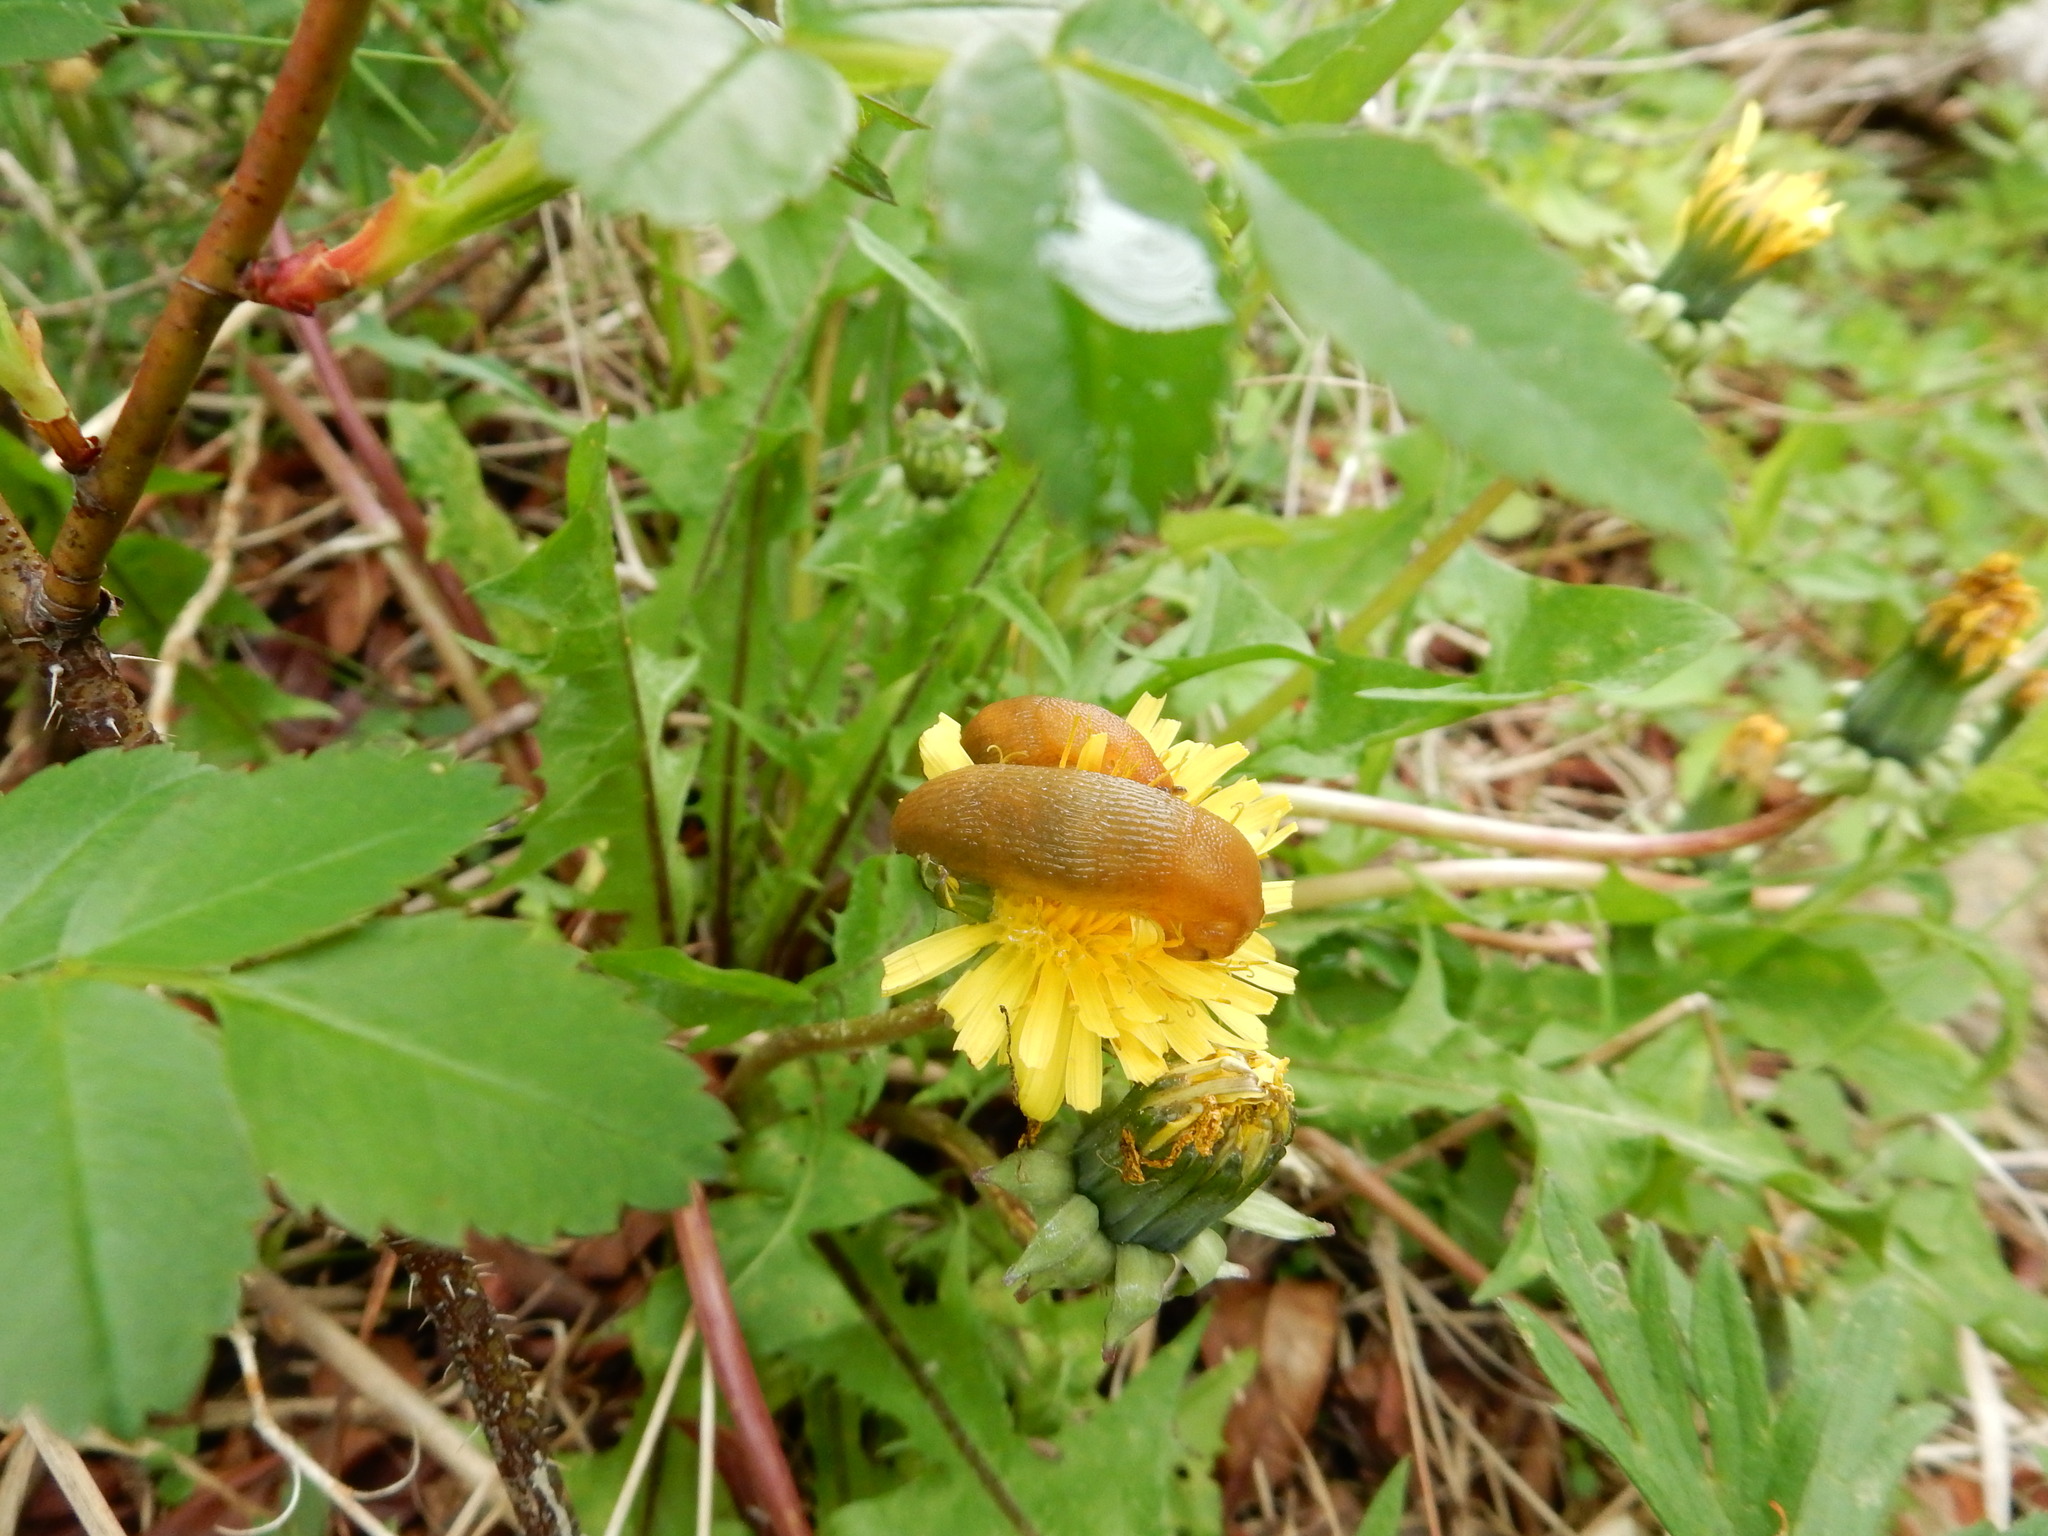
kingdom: Animalia
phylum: Mollusca
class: Gastropoda
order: Stylommatophora
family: Arionidae
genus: Arion
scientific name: Arion subfuscus
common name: Dusky arion
